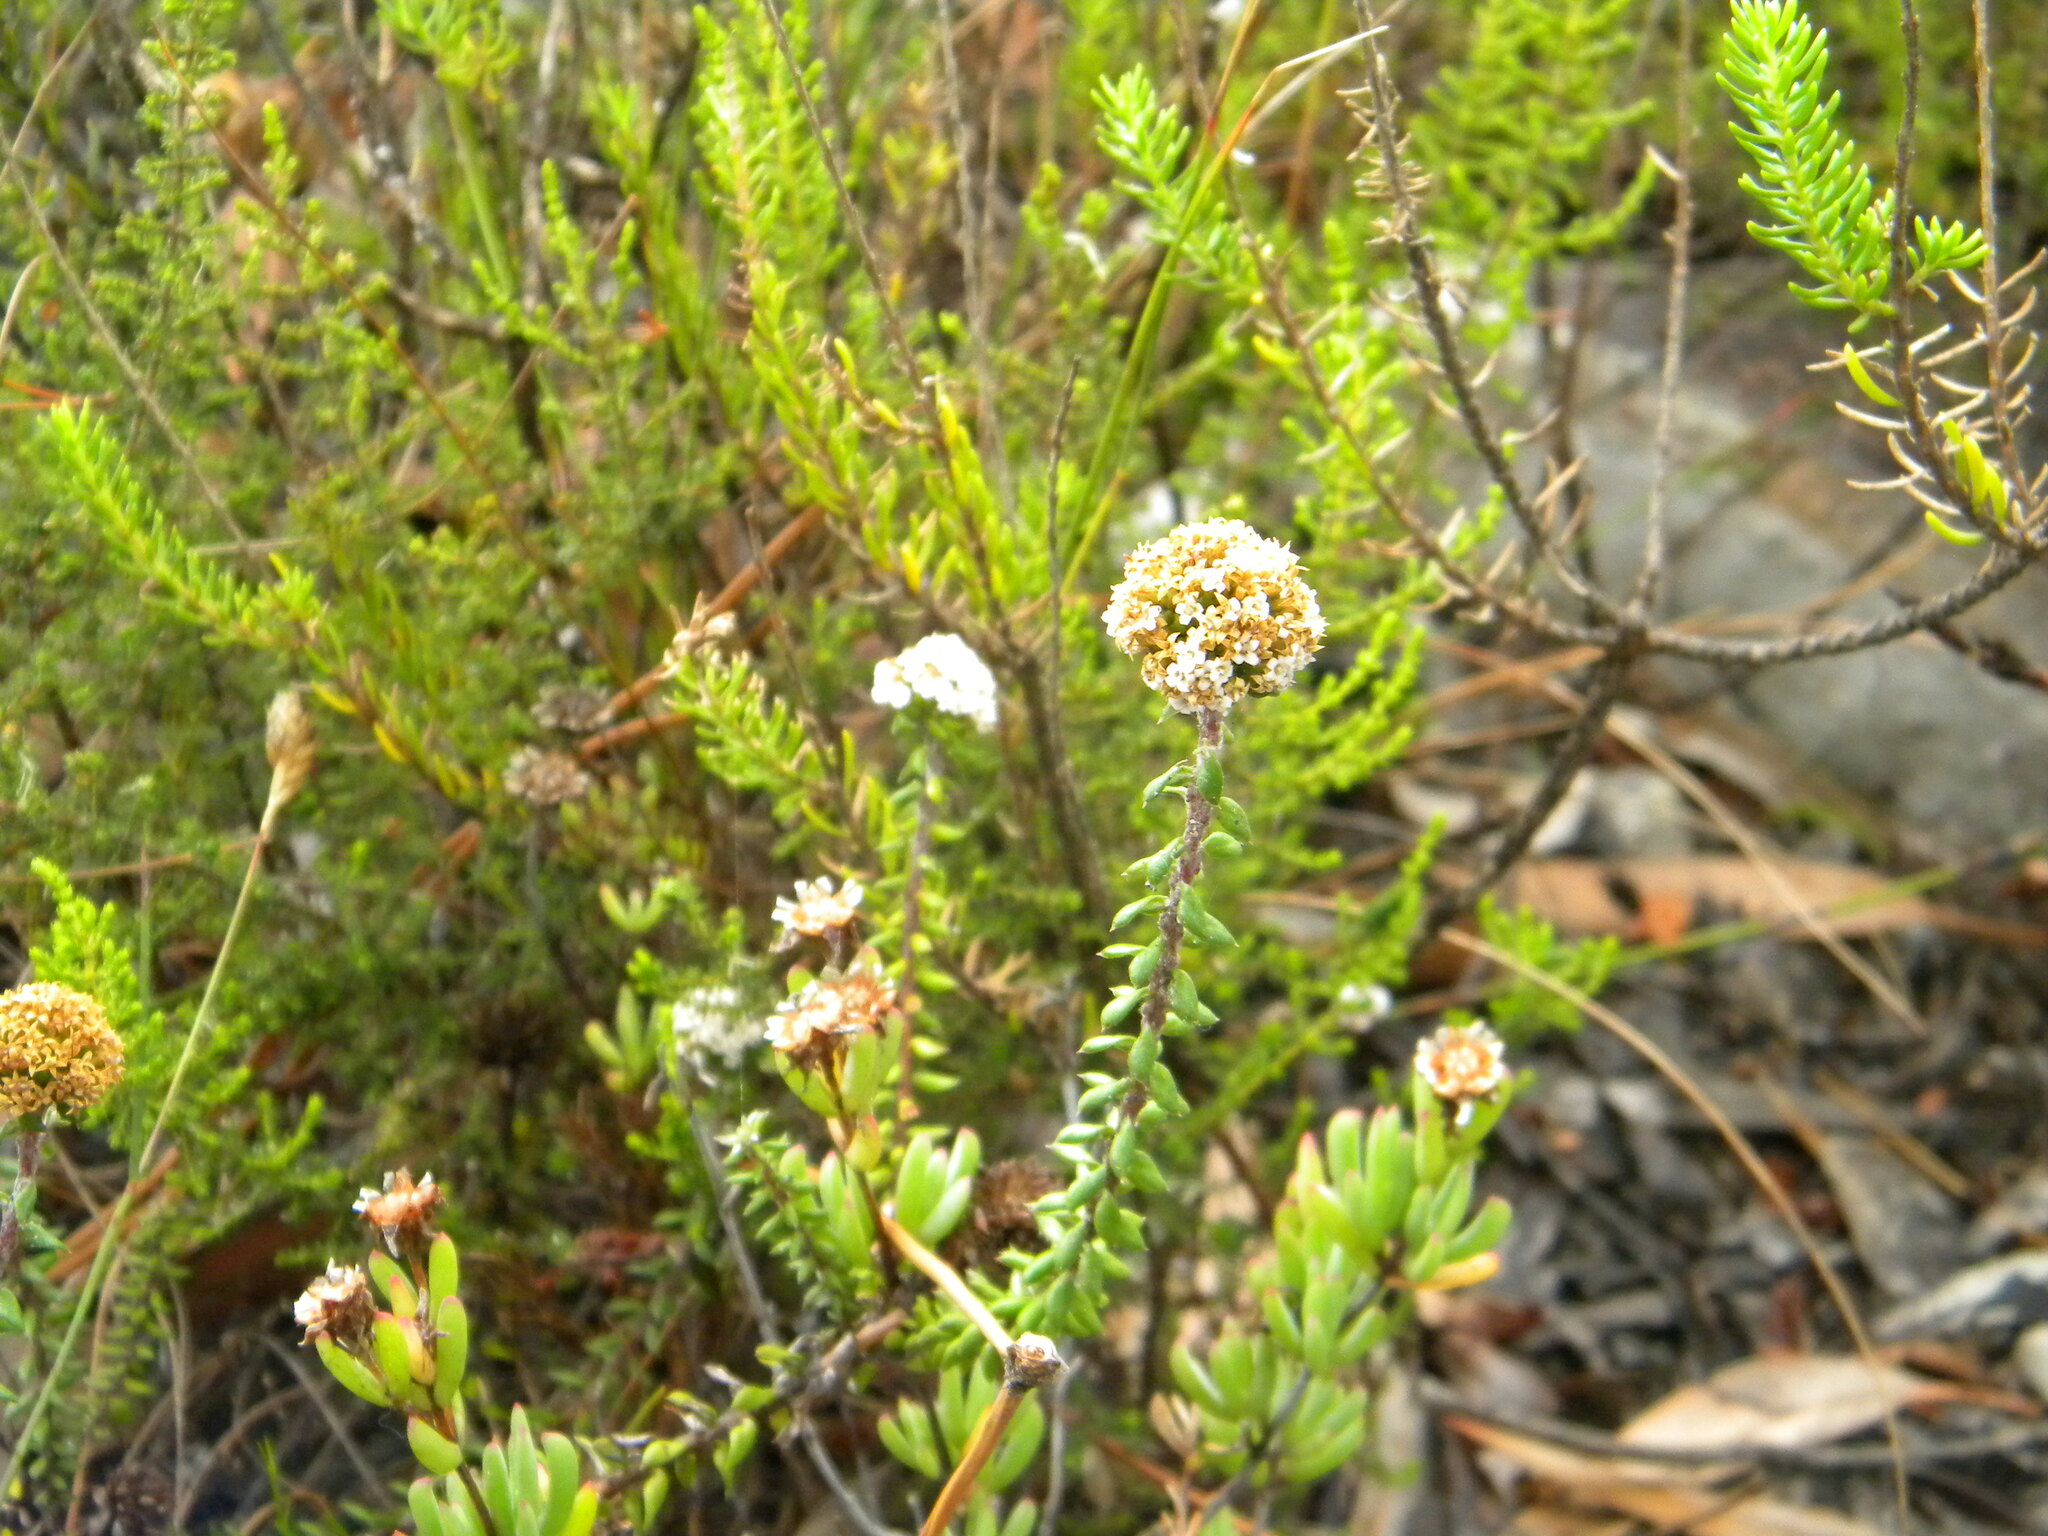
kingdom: Plantae
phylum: Tracheophyta
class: Magnoliopsida
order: Asterales
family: Asteraceae
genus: Stoebe
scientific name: Stoebe cyathuloides
